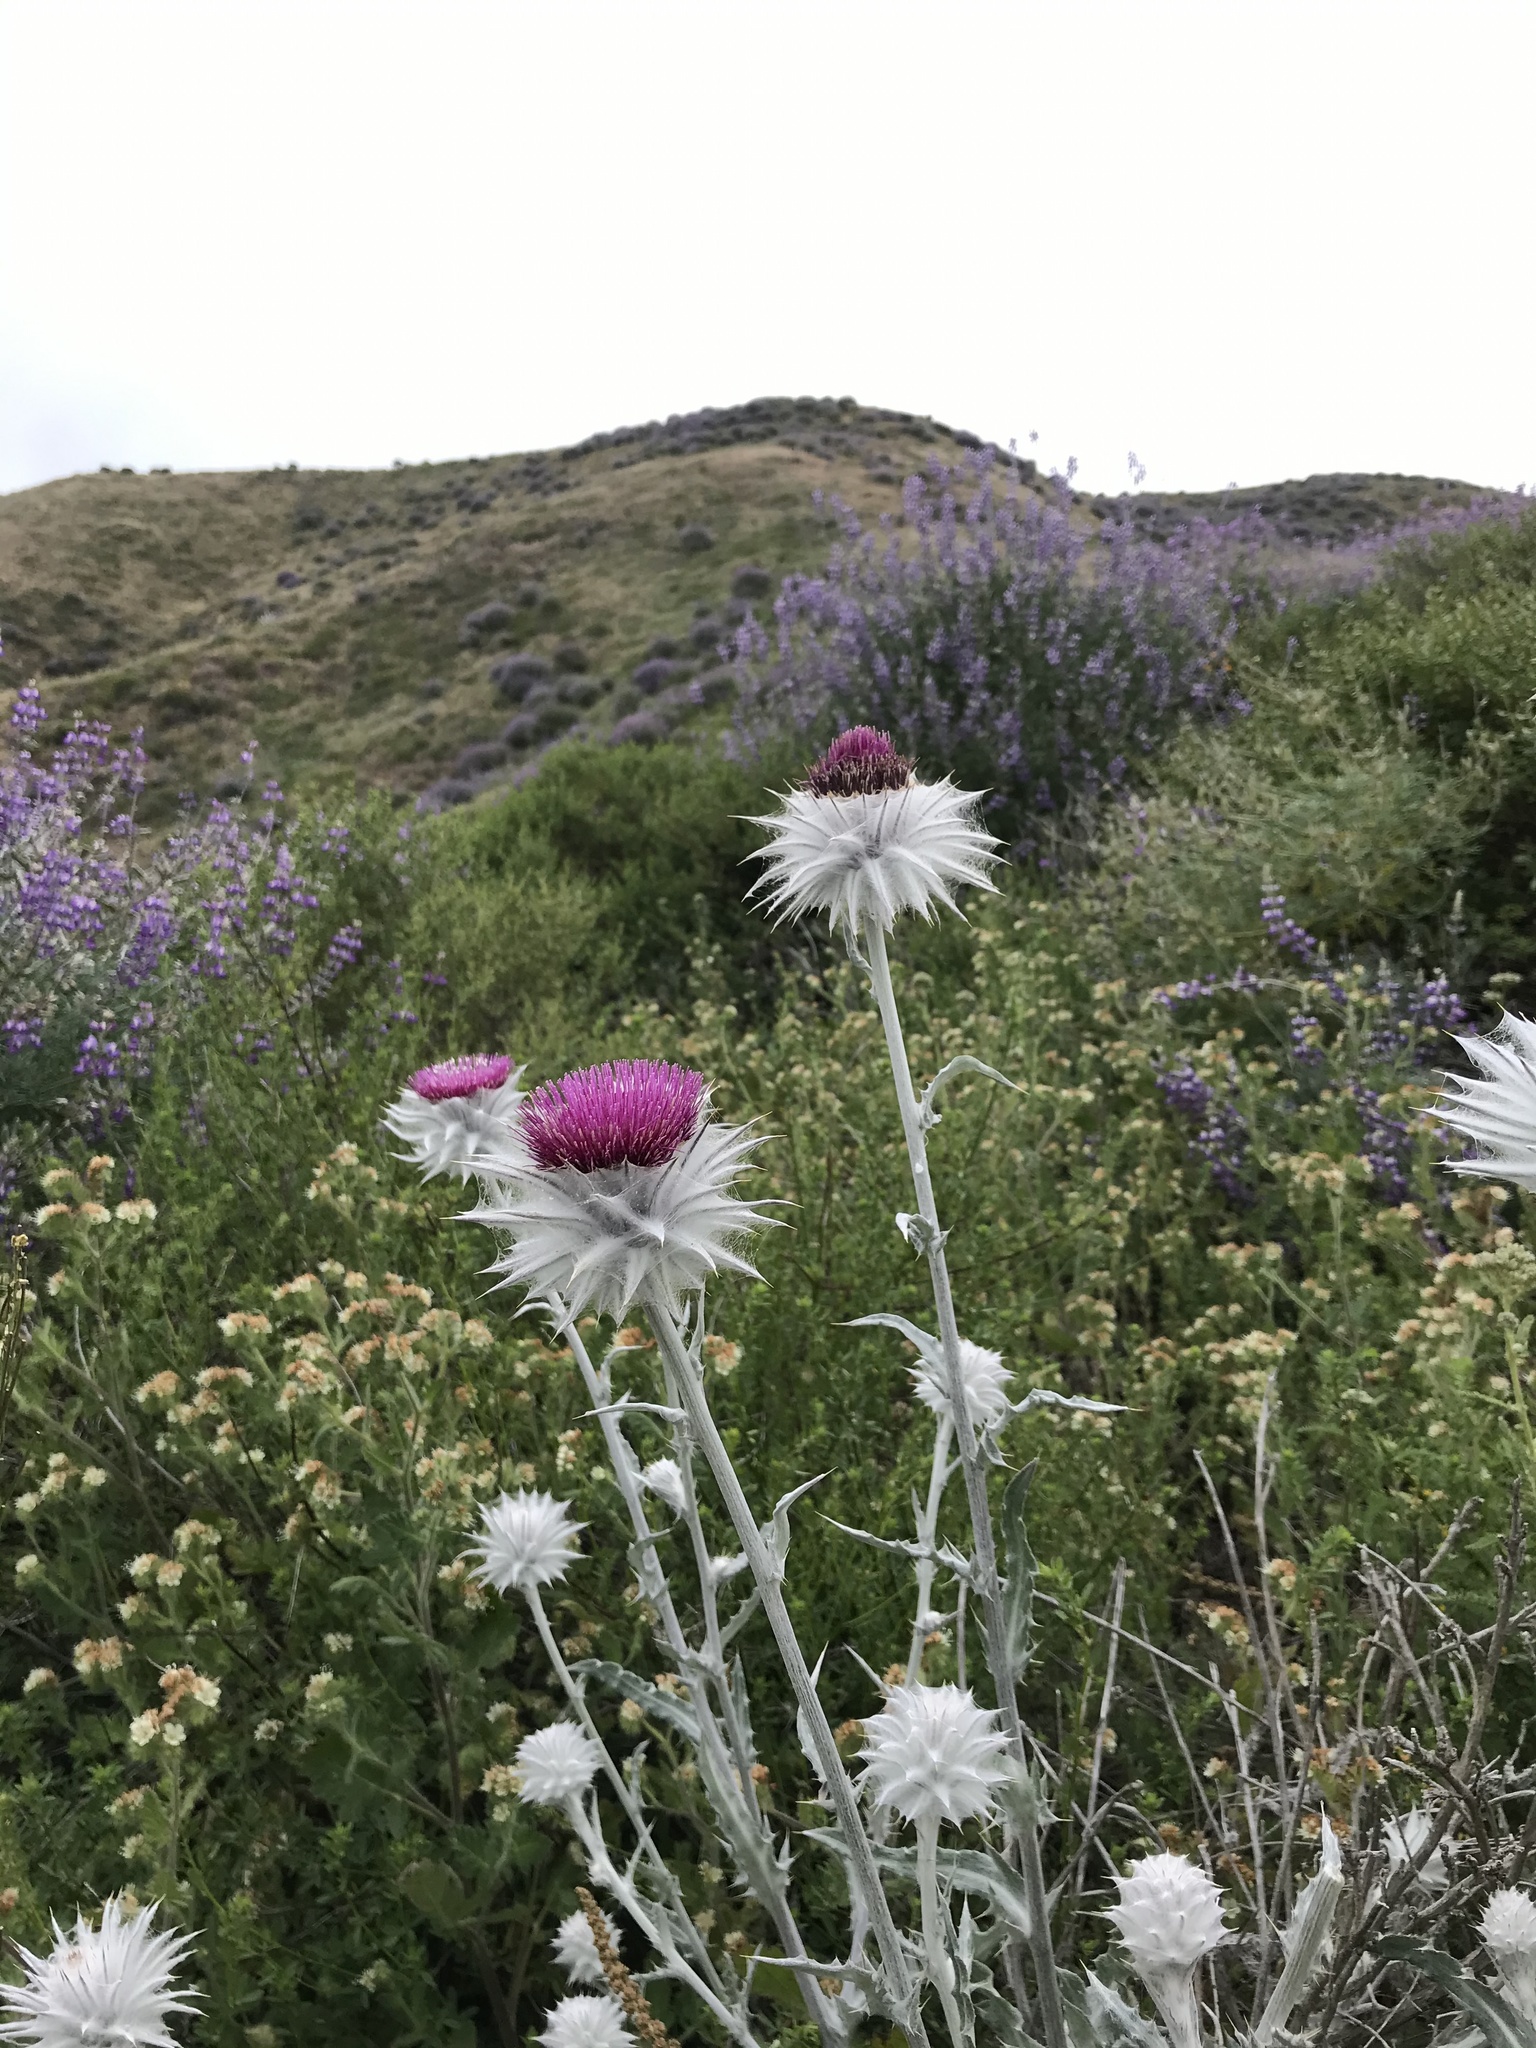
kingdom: Plantae
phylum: Tracheophyta
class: Magnoliopsida
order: Asterales
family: Asteraceae
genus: Cirsium
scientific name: Cirsium occidentale
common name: Western thistle
